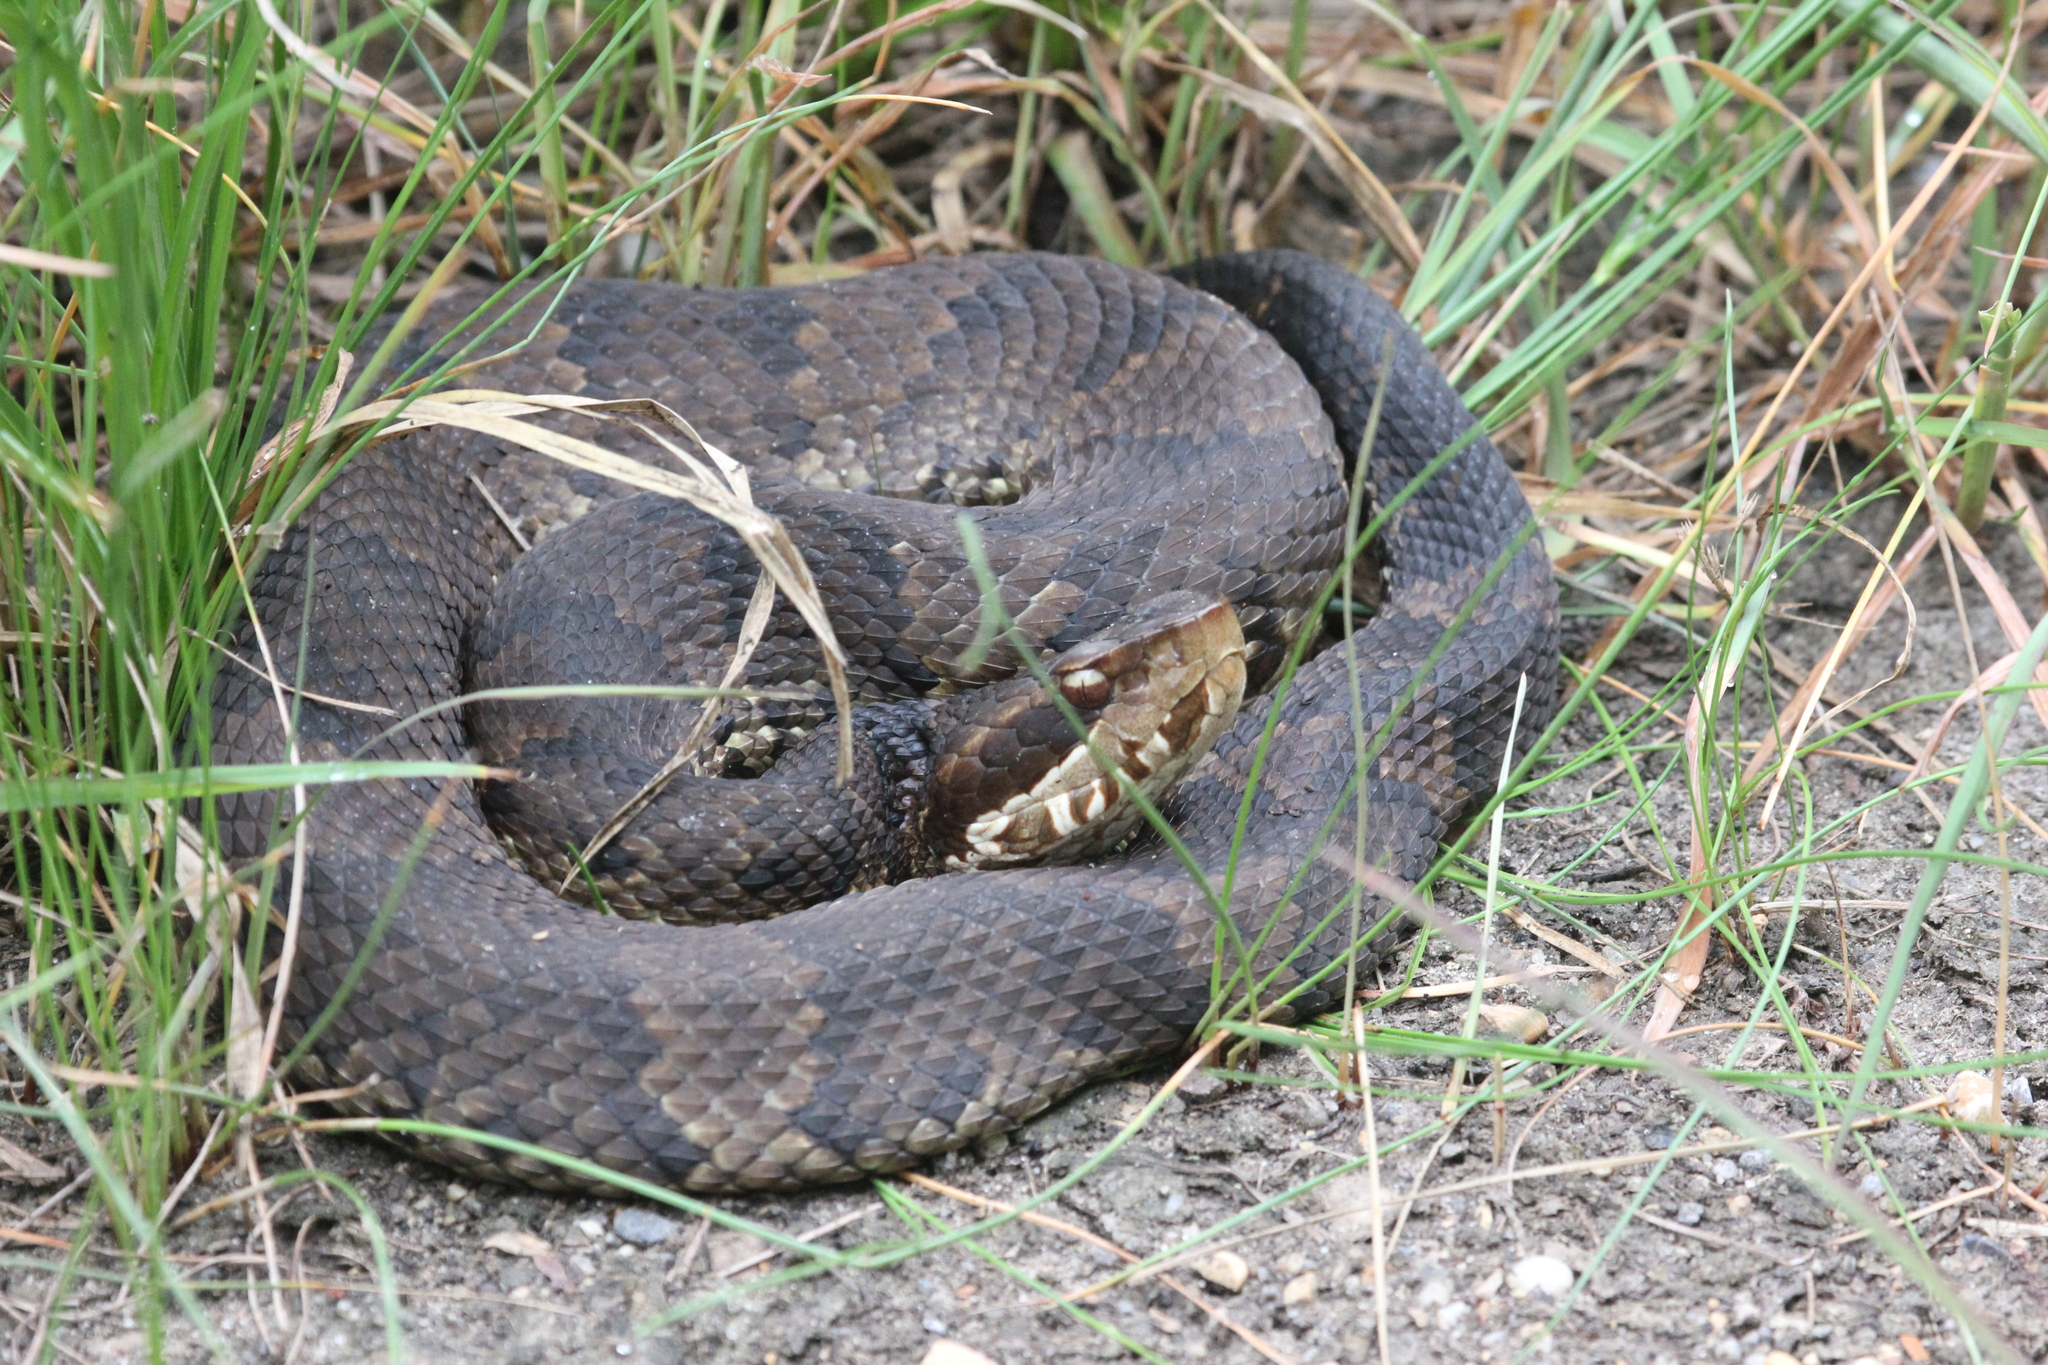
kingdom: Animalia
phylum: Chordata
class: Squamata
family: Viperidae
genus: Agkistrodon
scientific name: Agkistrodon piscivorus
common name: Cottonmouth
